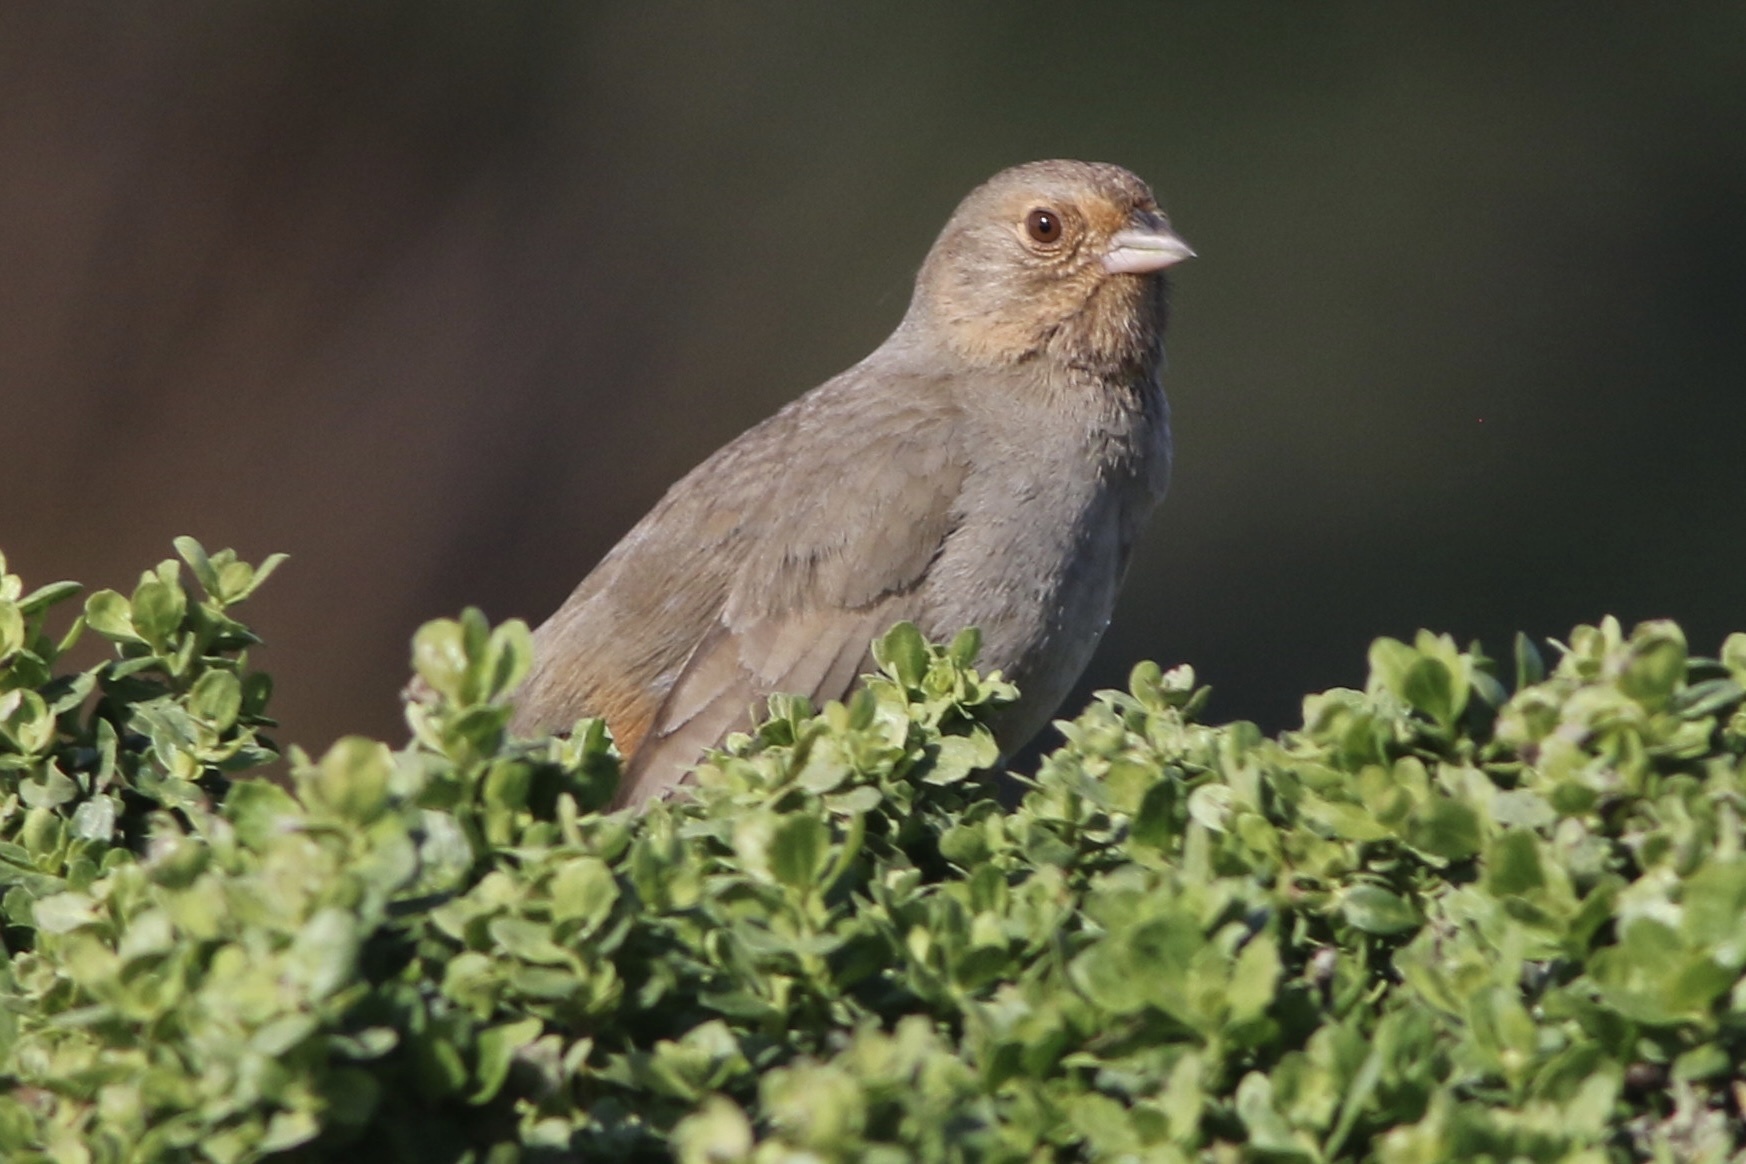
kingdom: Animalia
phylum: Chordata
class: Aves
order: Passeriformes
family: Passerellidae
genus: Melozone
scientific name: Melozone crissalis
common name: California towhee
